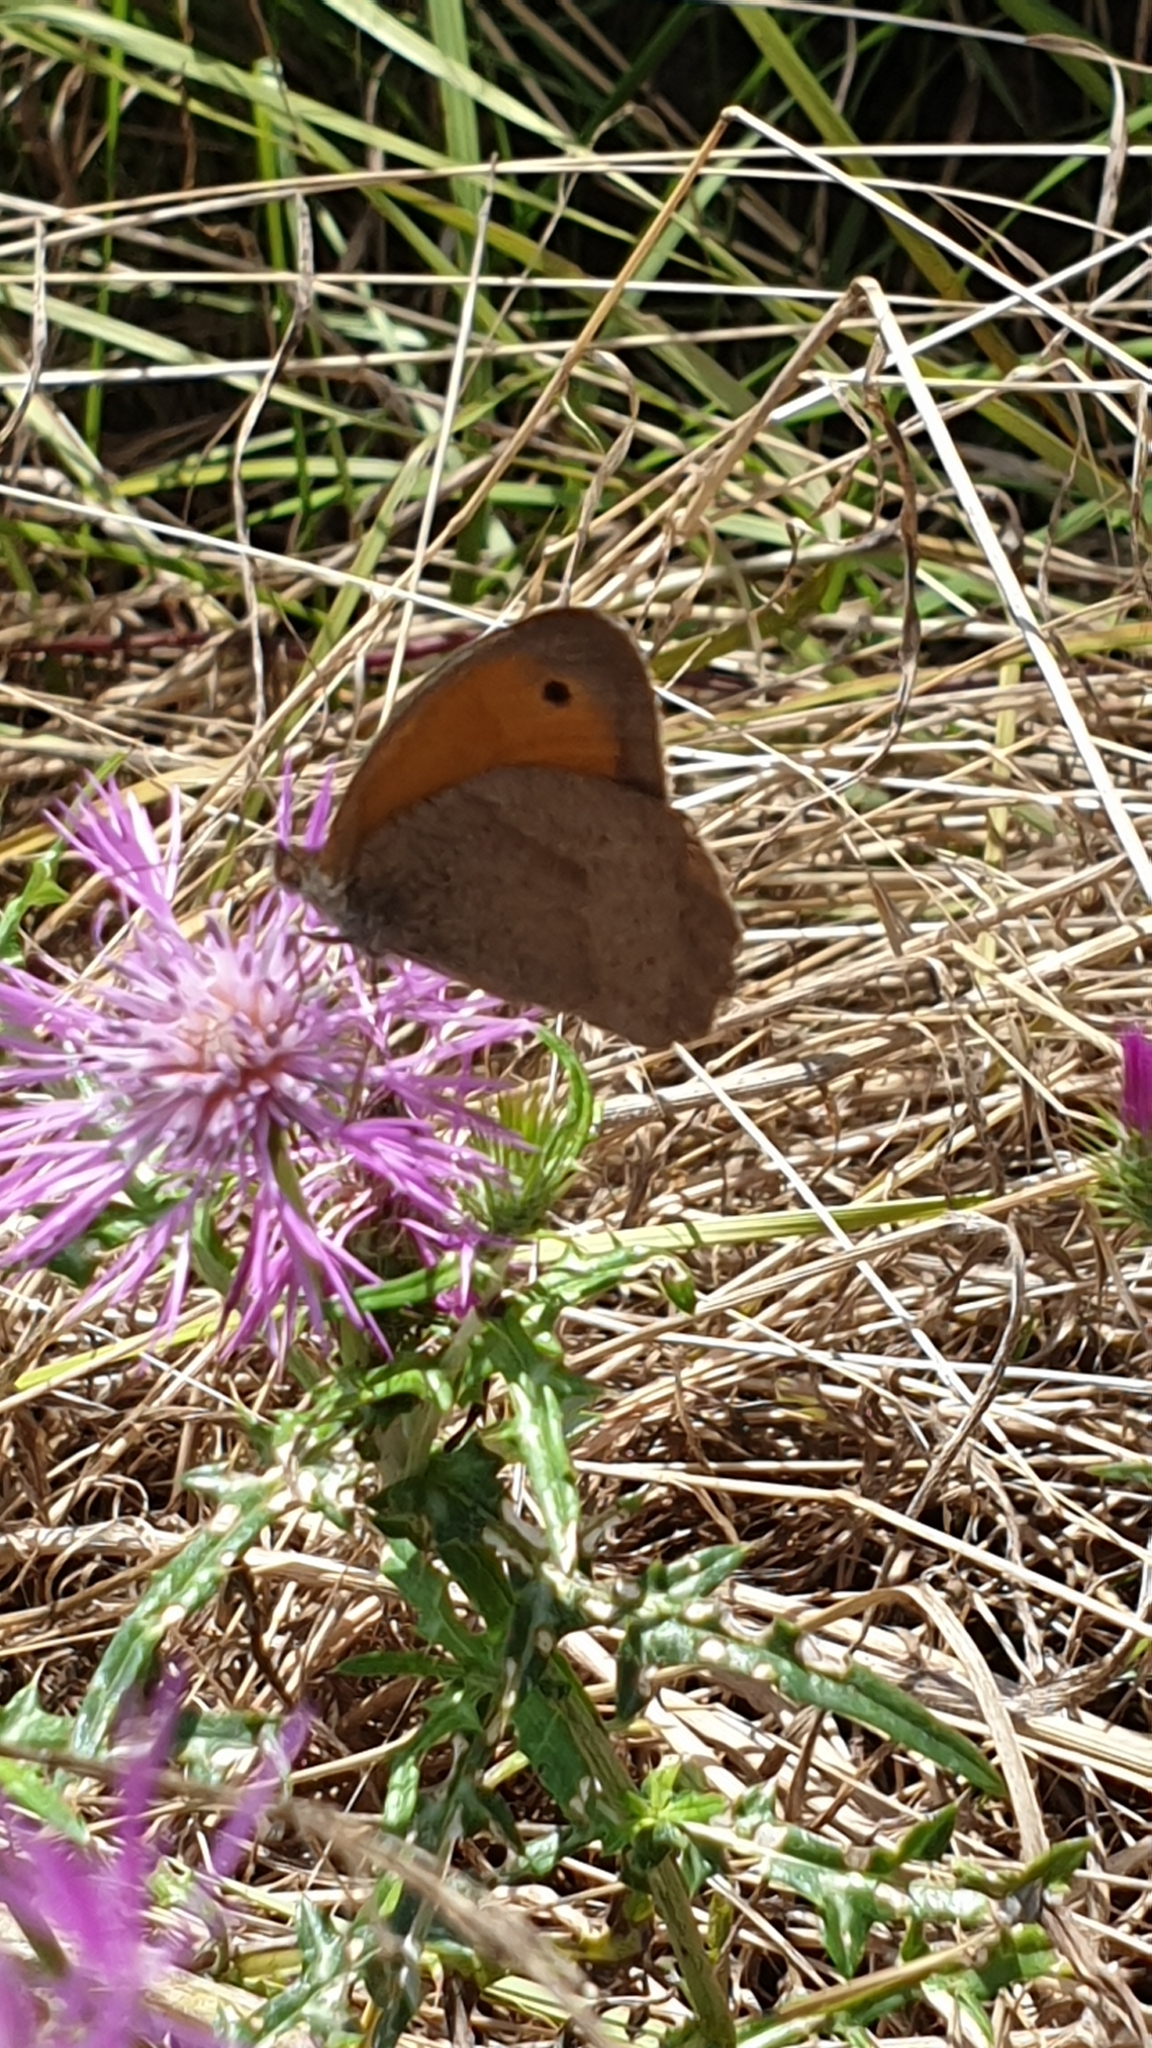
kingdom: Animalia
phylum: Arthropoda
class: Insecta
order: Lepidoptera
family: Nymphalidae
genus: Maniola
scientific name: Maniola jurtina
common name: Meadow brown
